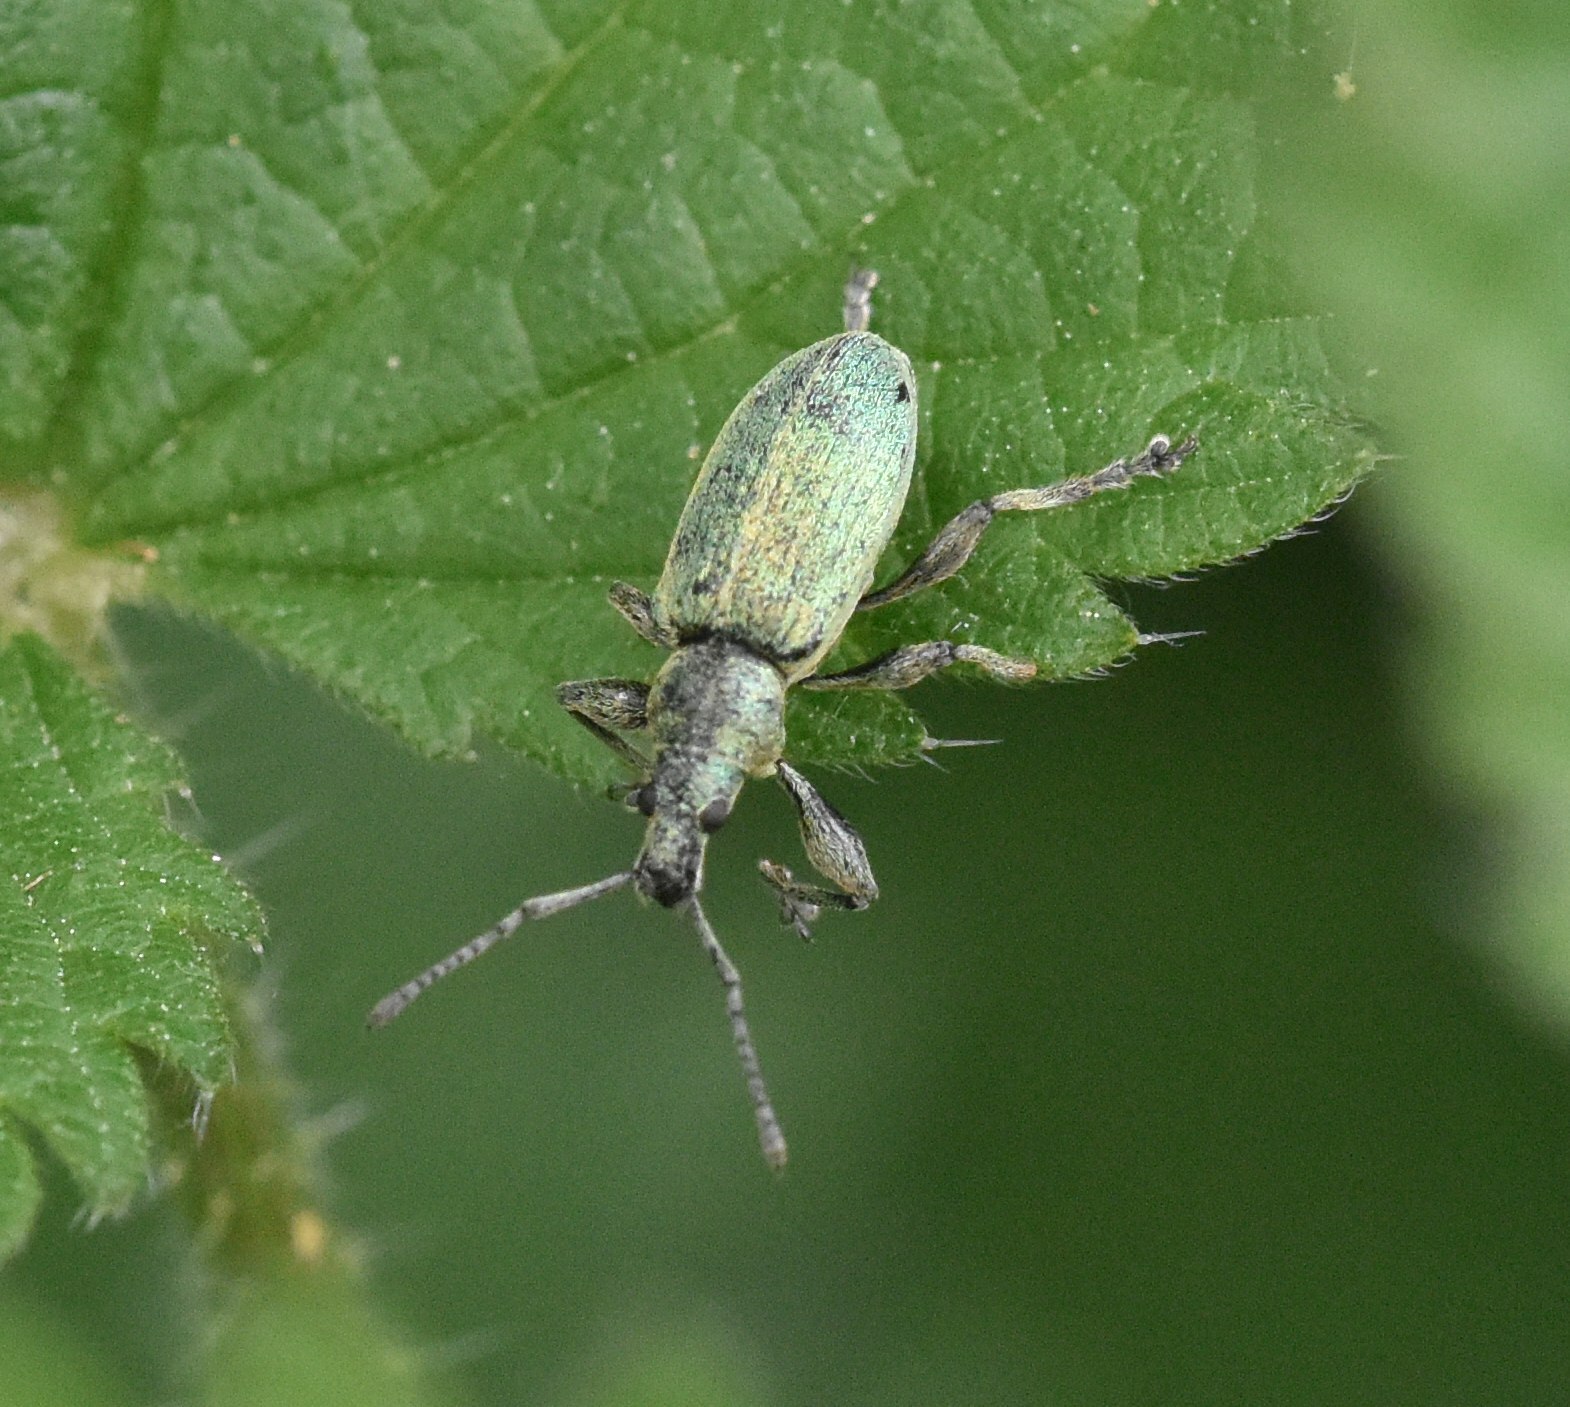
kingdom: Animalia
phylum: Arthropoda
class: Insecta
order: Coleoptera
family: Curculionidae
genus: Phyllobius
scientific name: Phyllobius pomaceus
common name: Green nettle weevil
